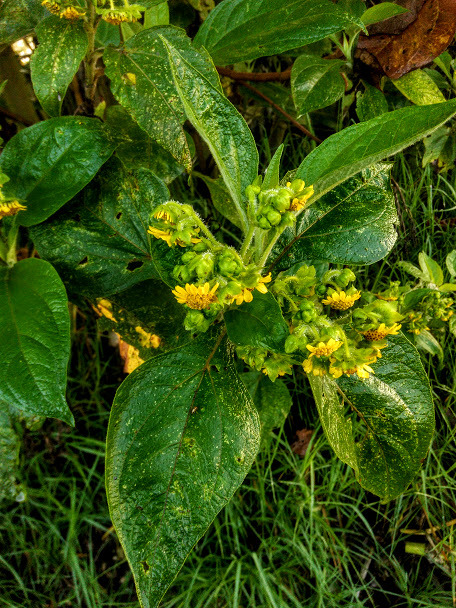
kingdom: Plantae
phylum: Tracheophyta
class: Magnoliopsida
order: Asterales
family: Asteraceae
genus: Smallanthus
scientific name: Smallanthus pyramidalis
